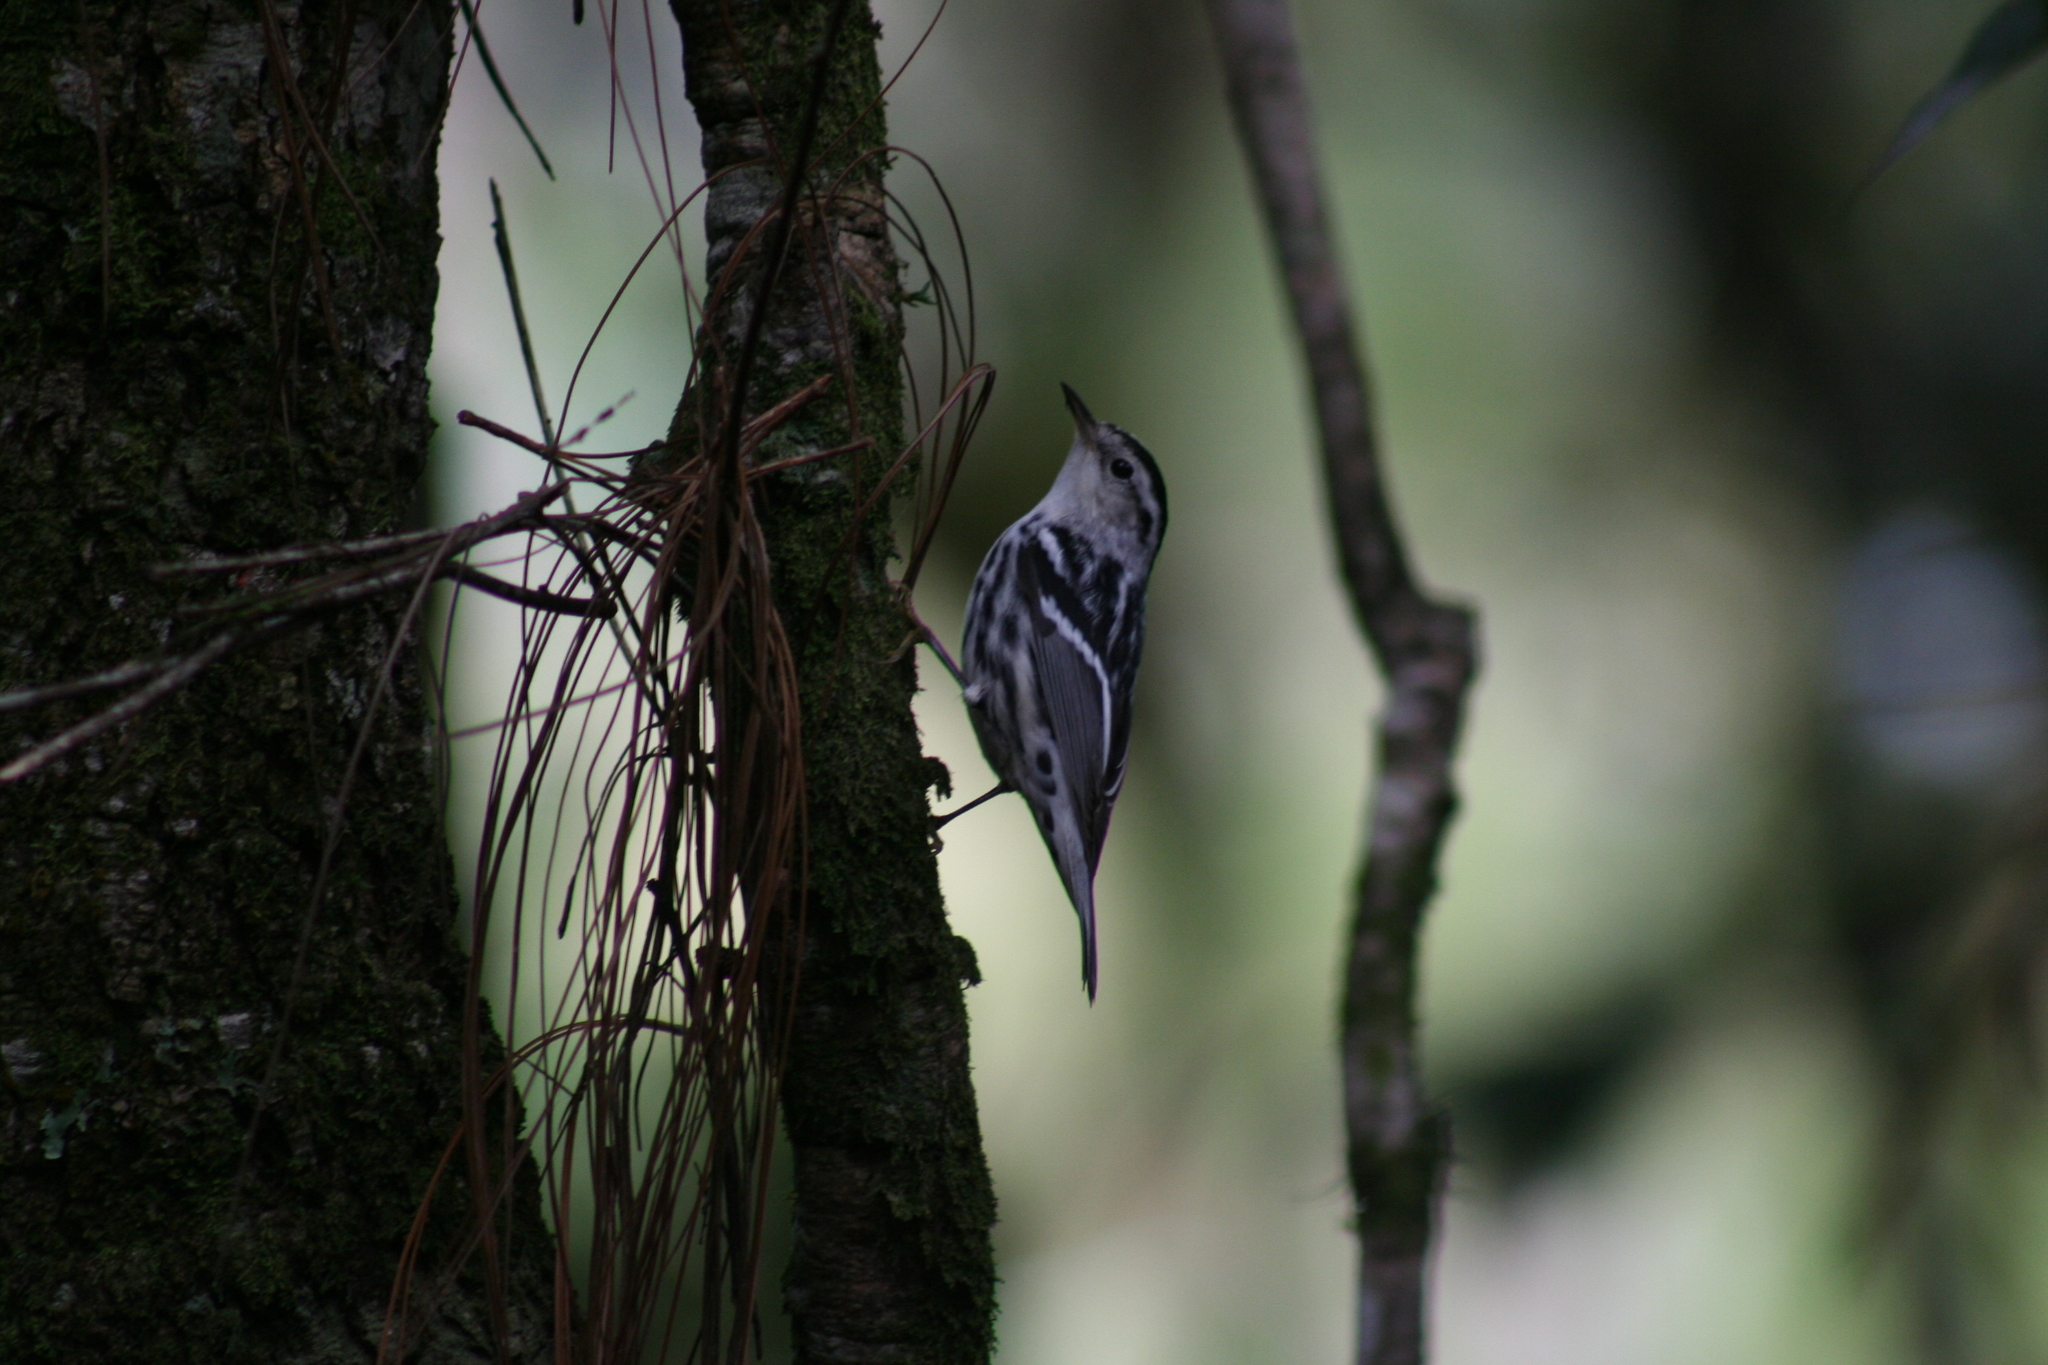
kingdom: Animalia
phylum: Chordata
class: Aves
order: Passeriformes
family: Parulidae
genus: Mniotilta
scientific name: Mniotilta varia
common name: Black-and-white warbler
